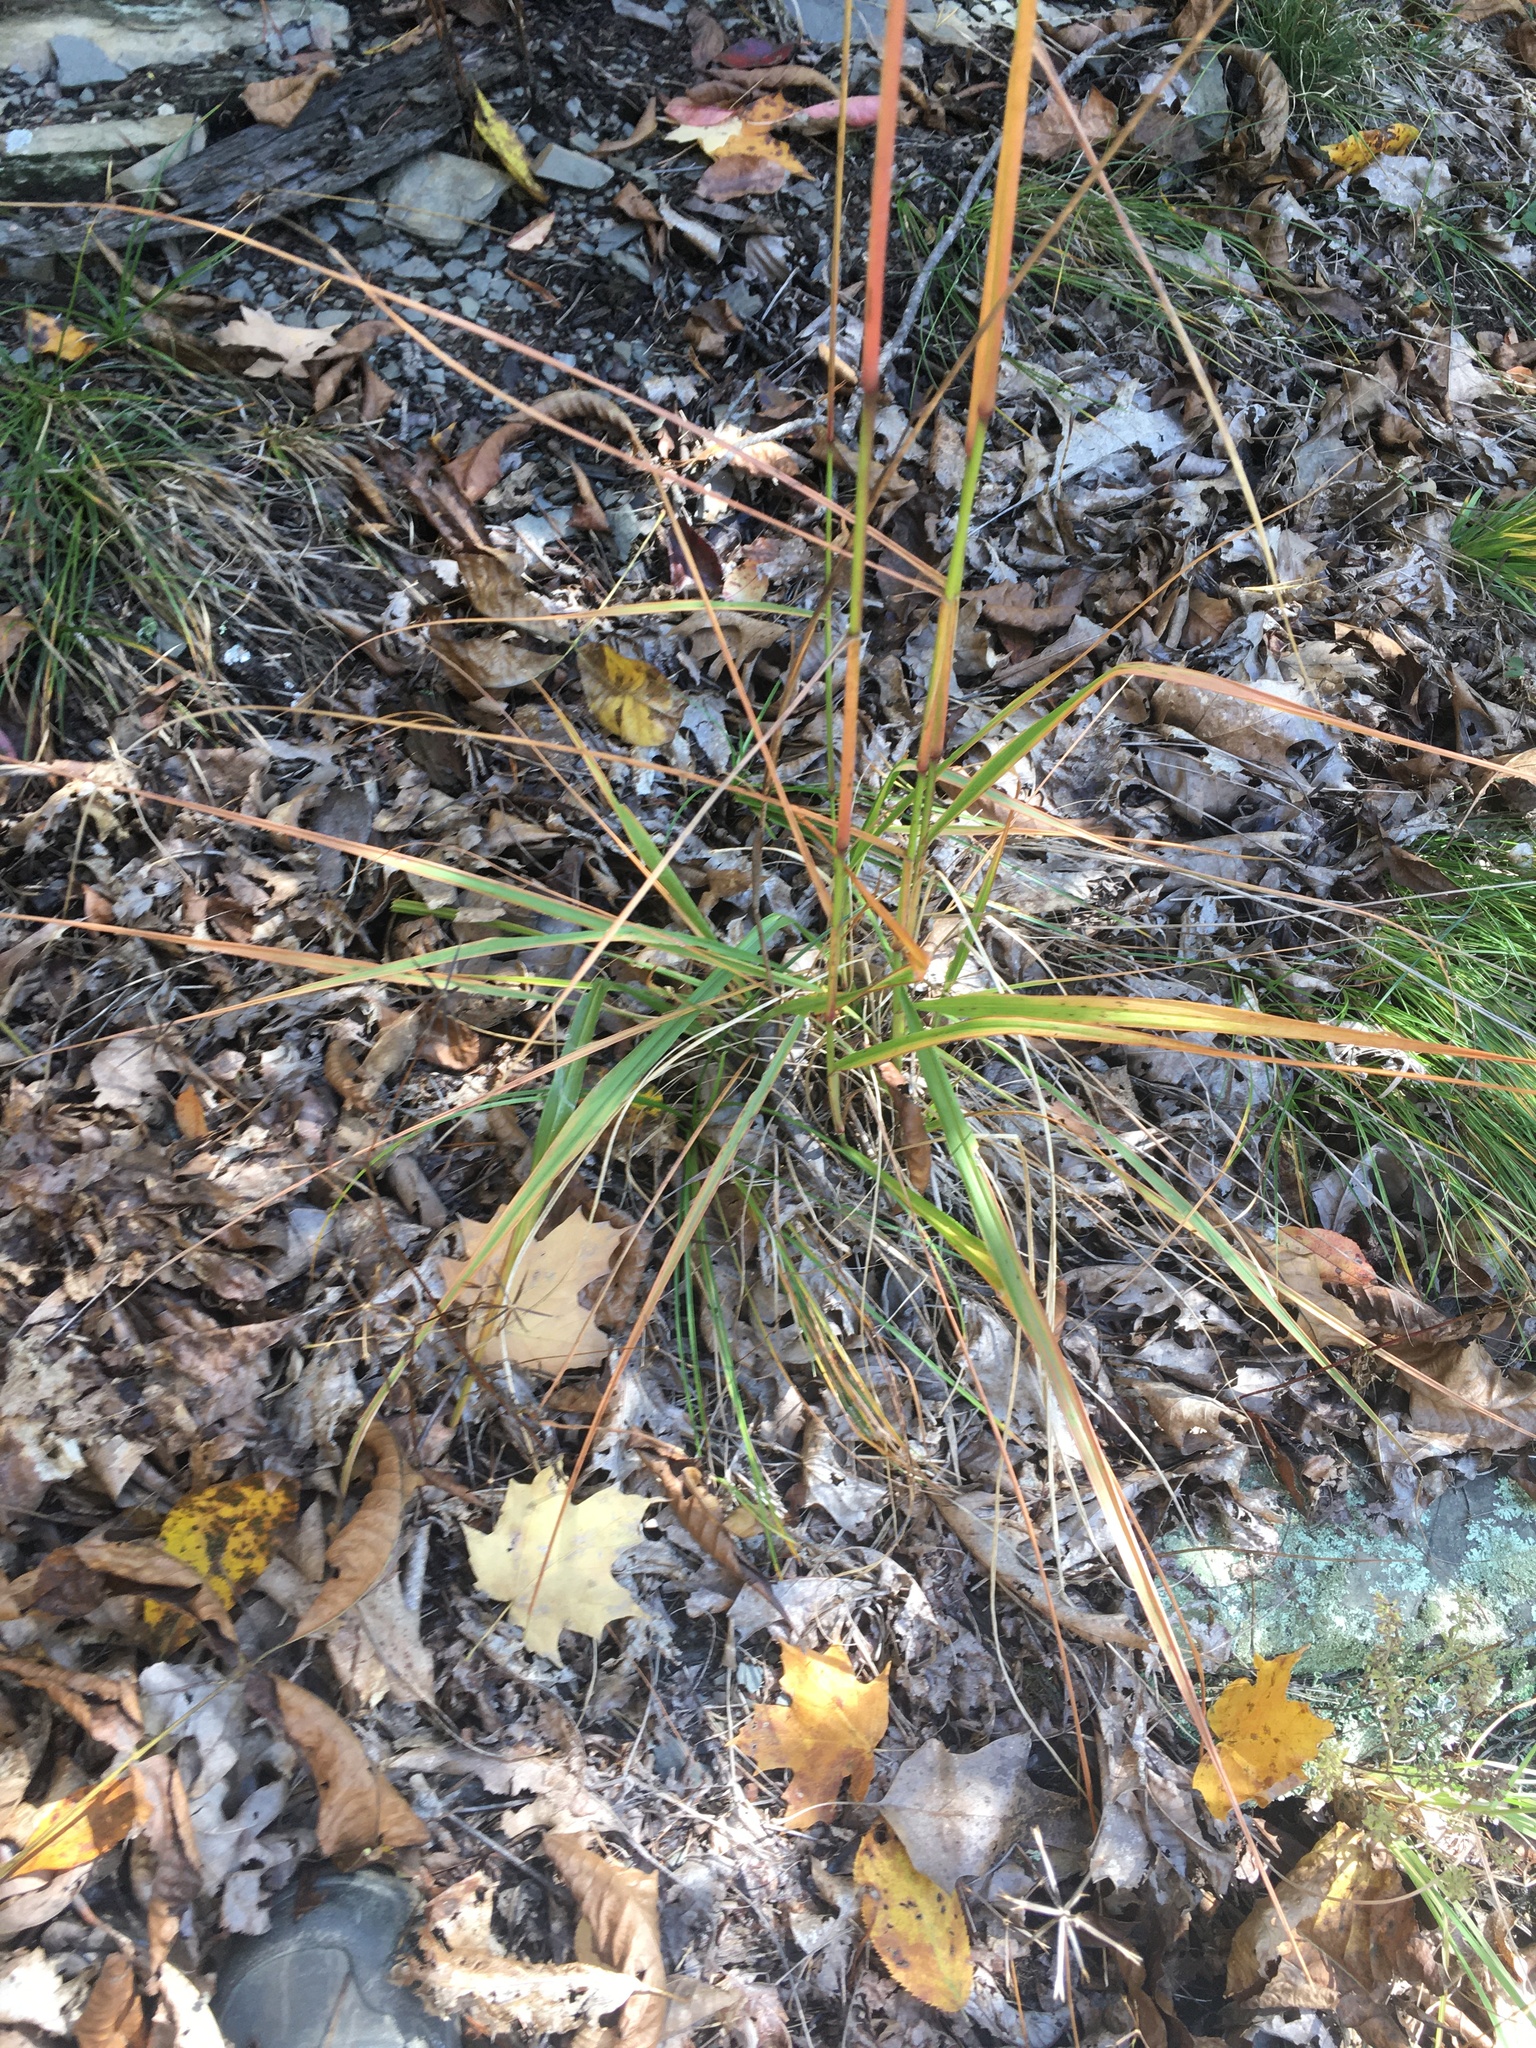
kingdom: Plantae
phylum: Tracheophyta
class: Liliopsida
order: Poales
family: Poaceae
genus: Tridens
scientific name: Tridens flavus
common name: Purpletop
